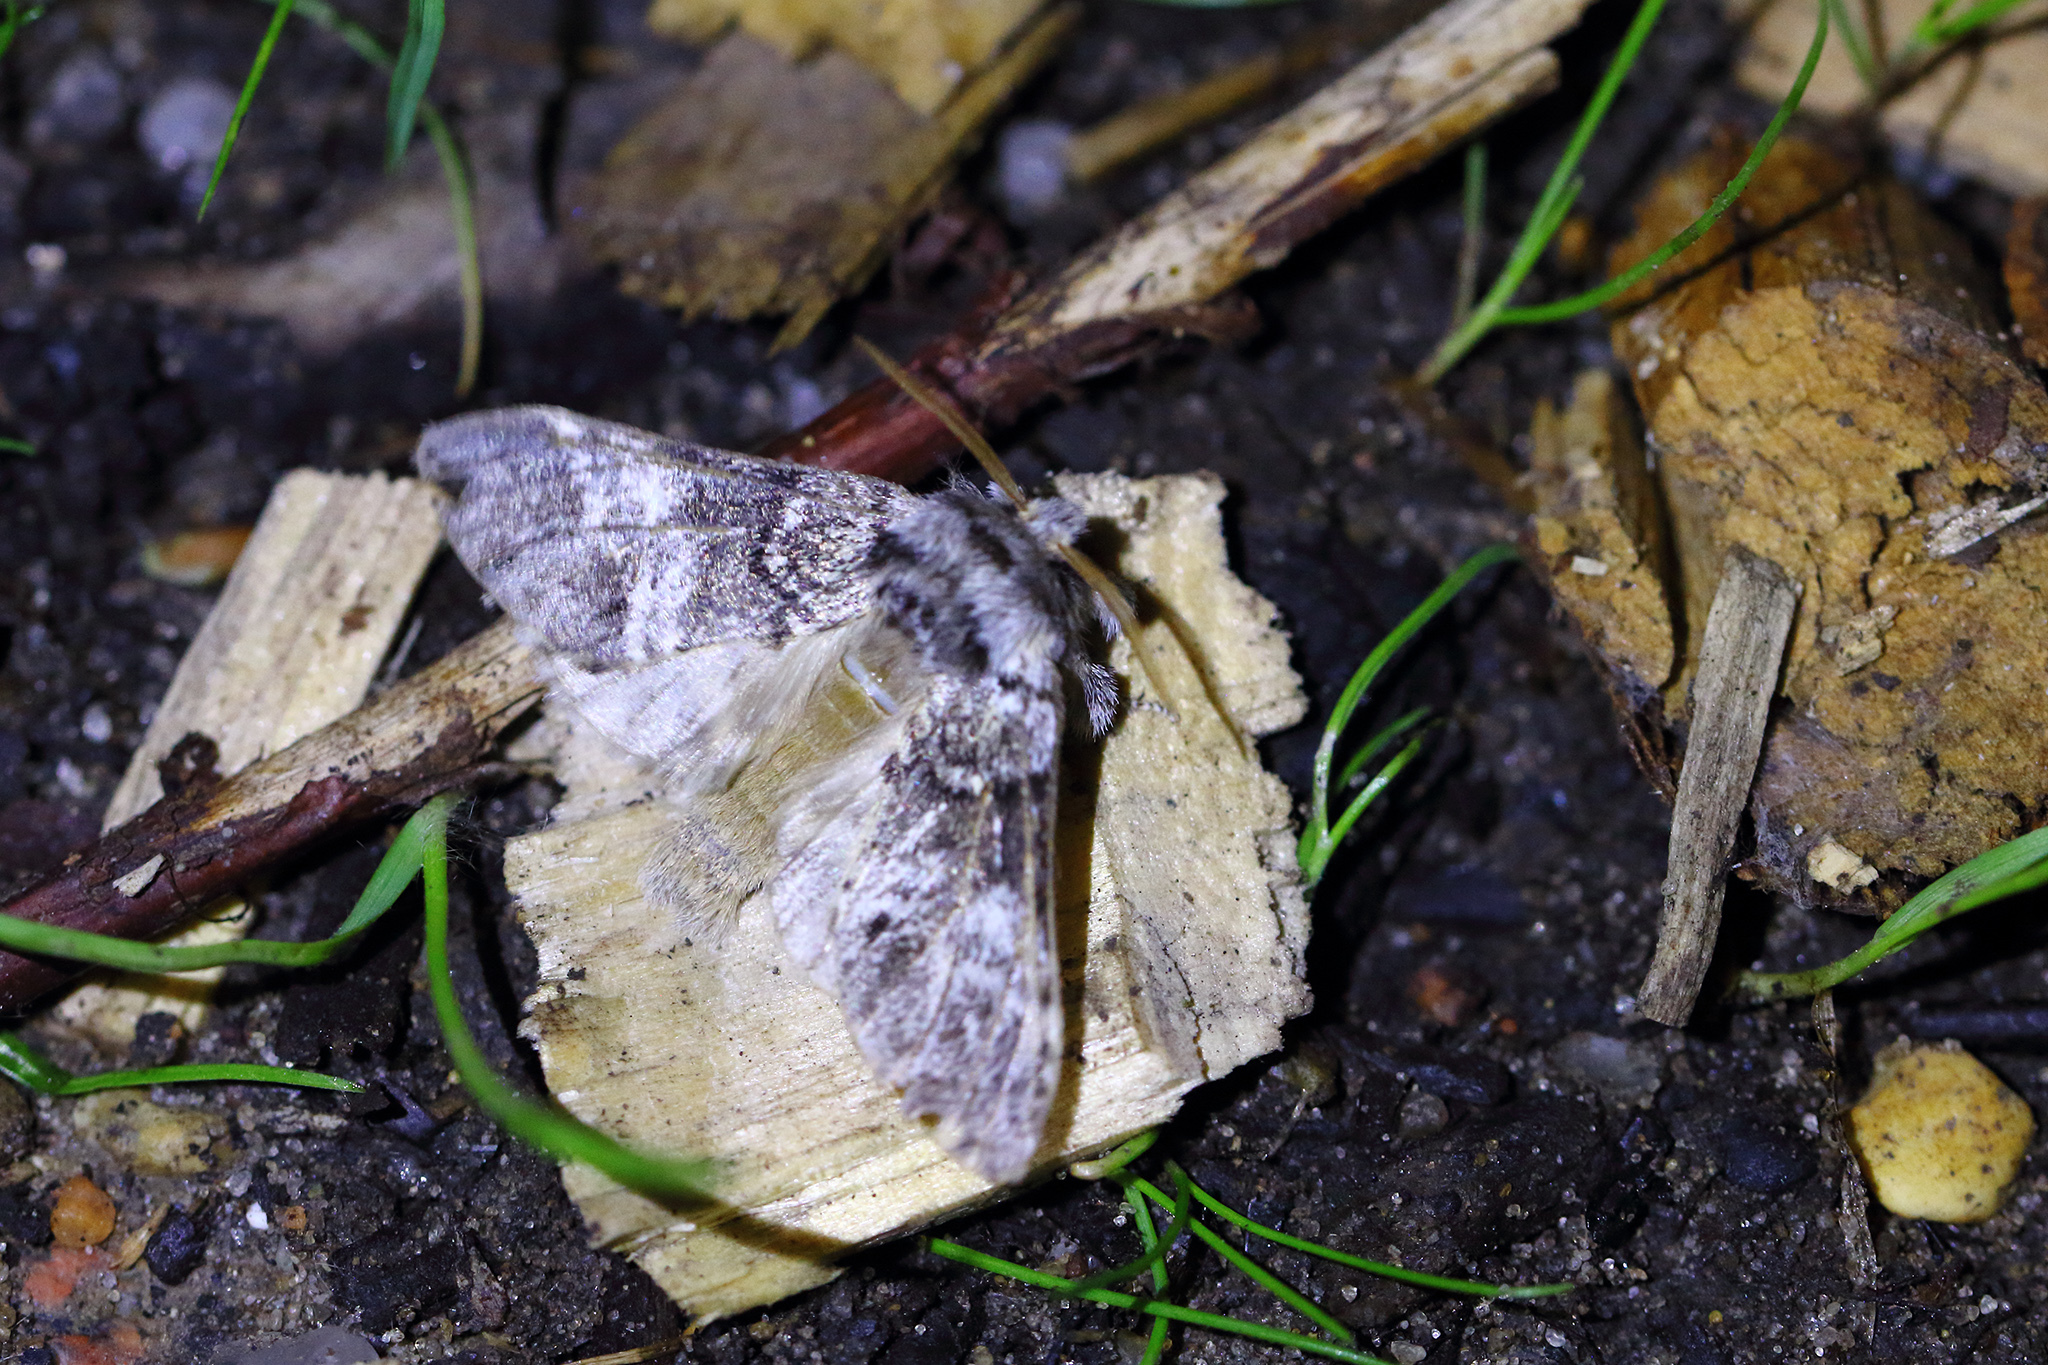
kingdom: Animalia
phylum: Arthropoda
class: Insecta
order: Lepidoptera
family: Notodontidae
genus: Drymonia
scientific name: Drymonia dodonaea
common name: Marbled brown
